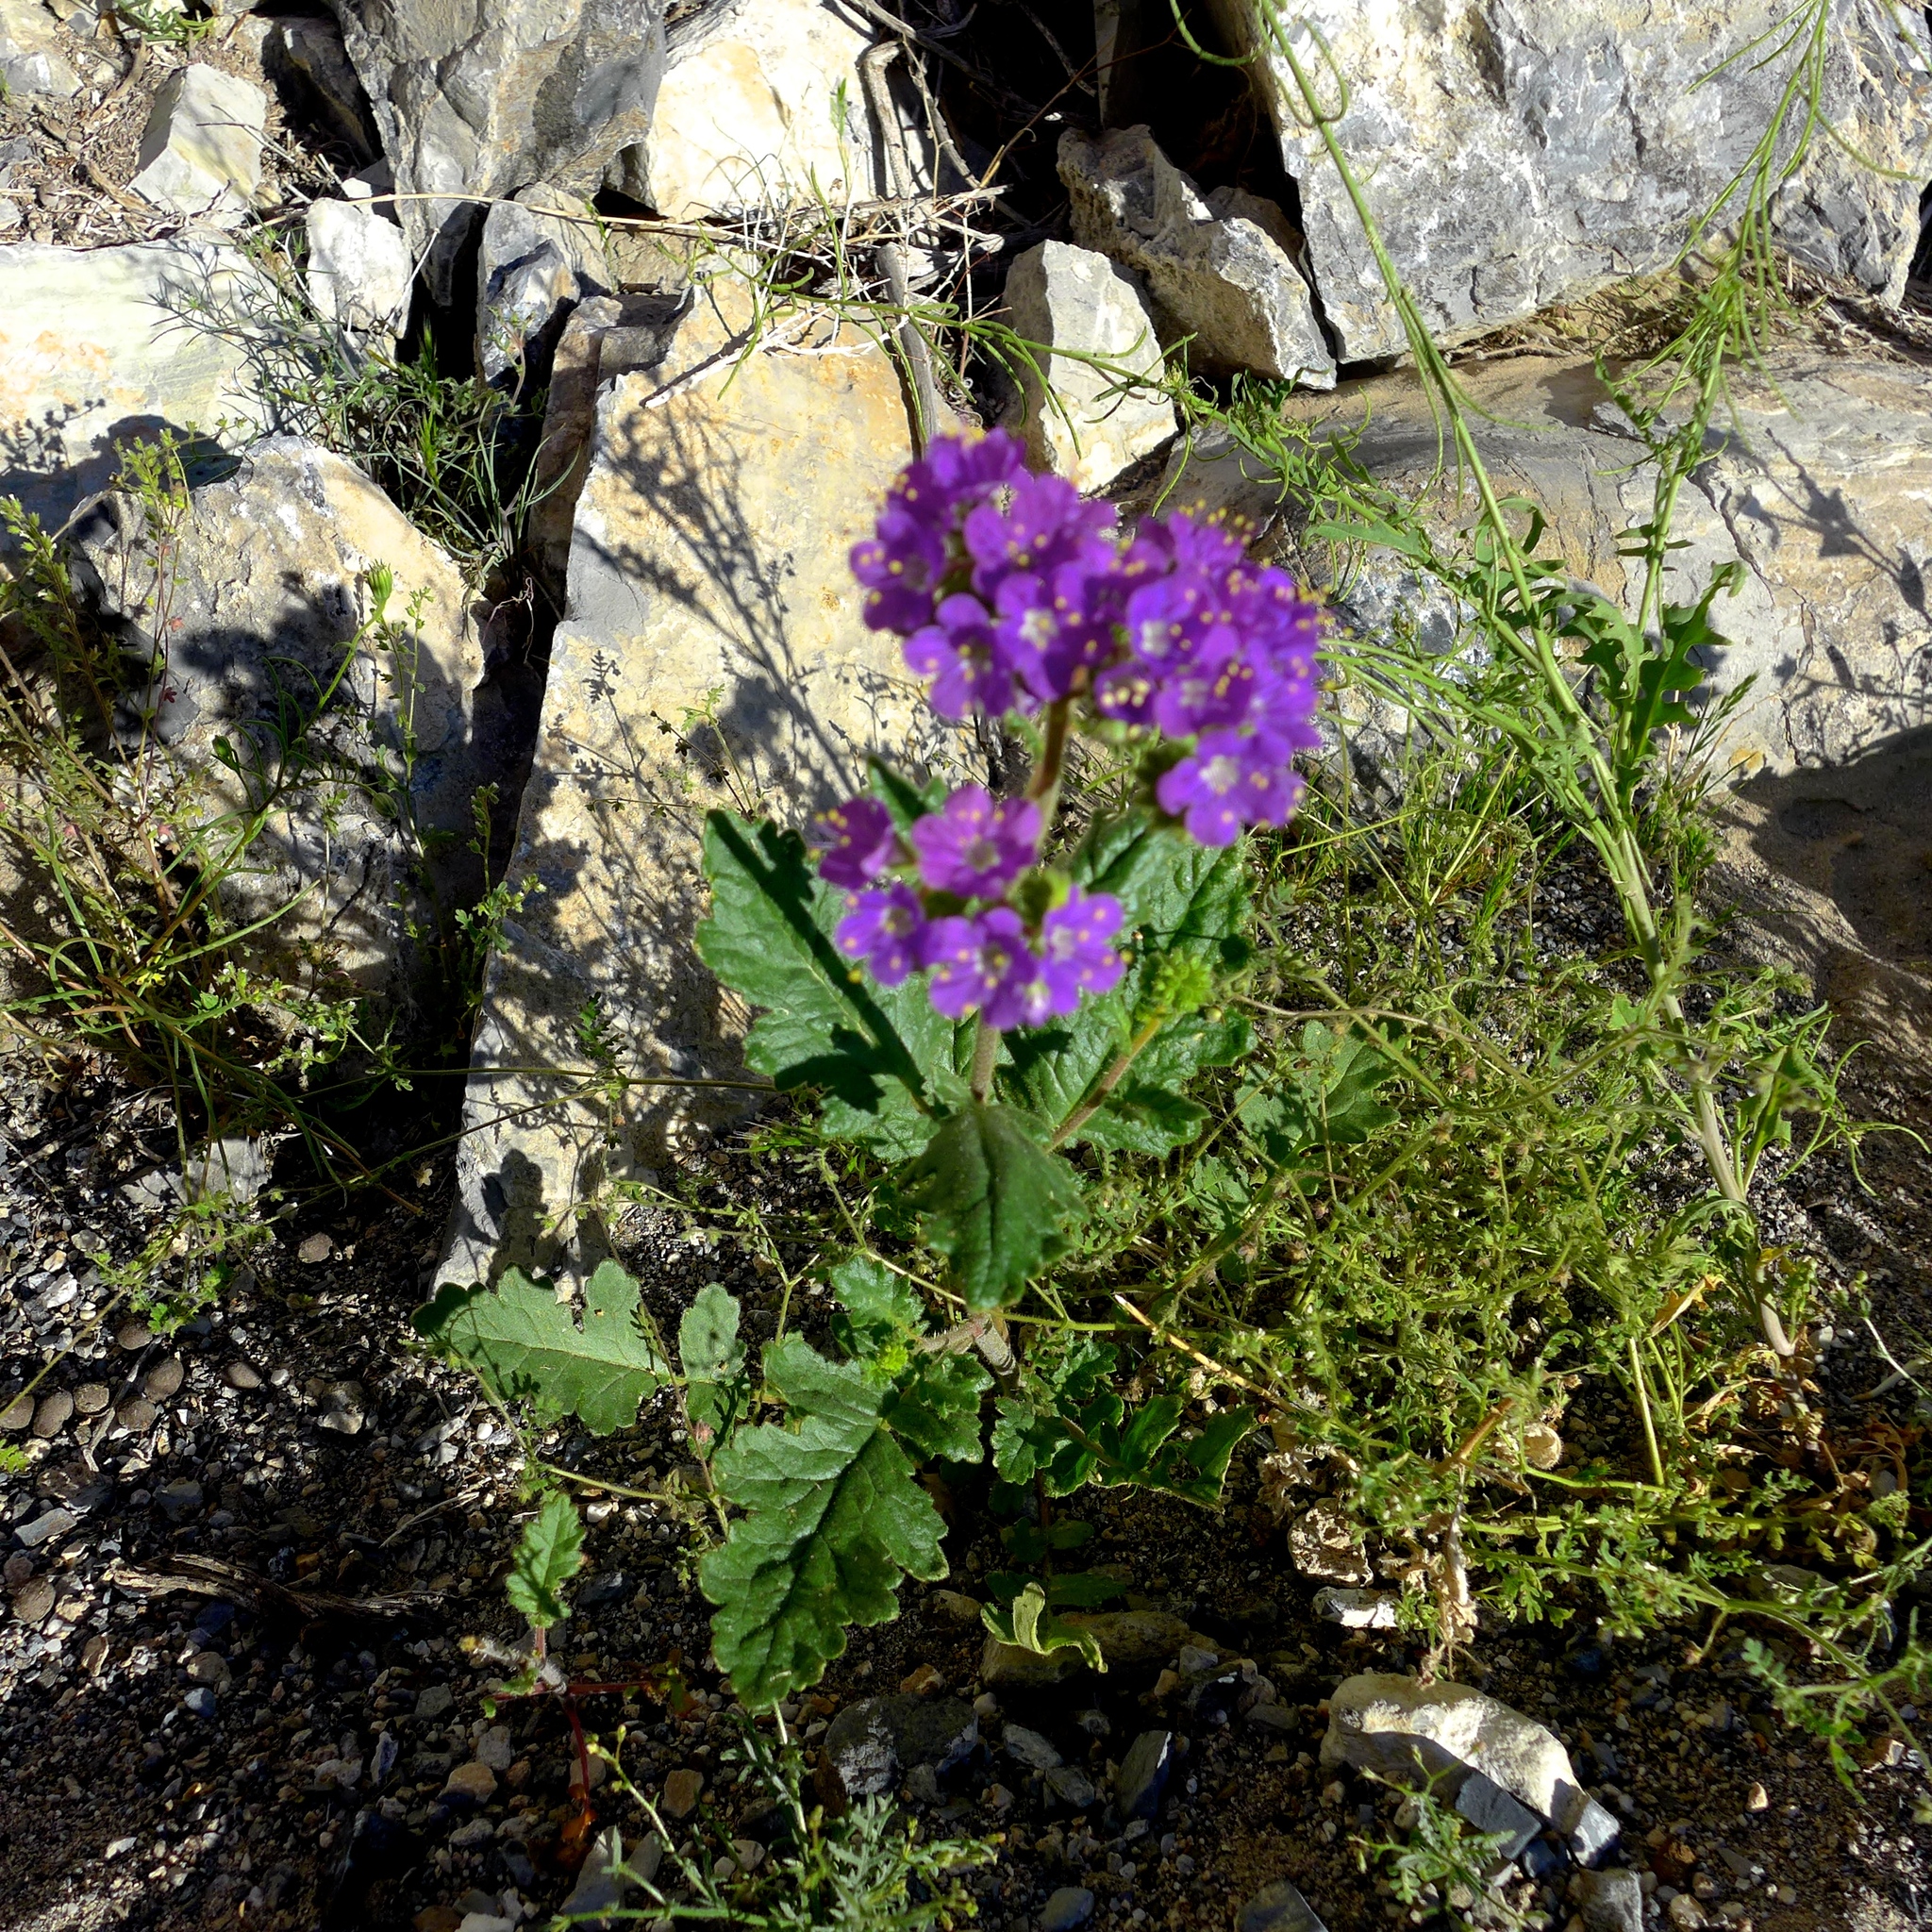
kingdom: Plantae
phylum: Tracheophyta
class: Magnoliopsida
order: Boraginales
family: Hydrophyllaceae
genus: Phacelia
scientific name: Phacelia crenulata
